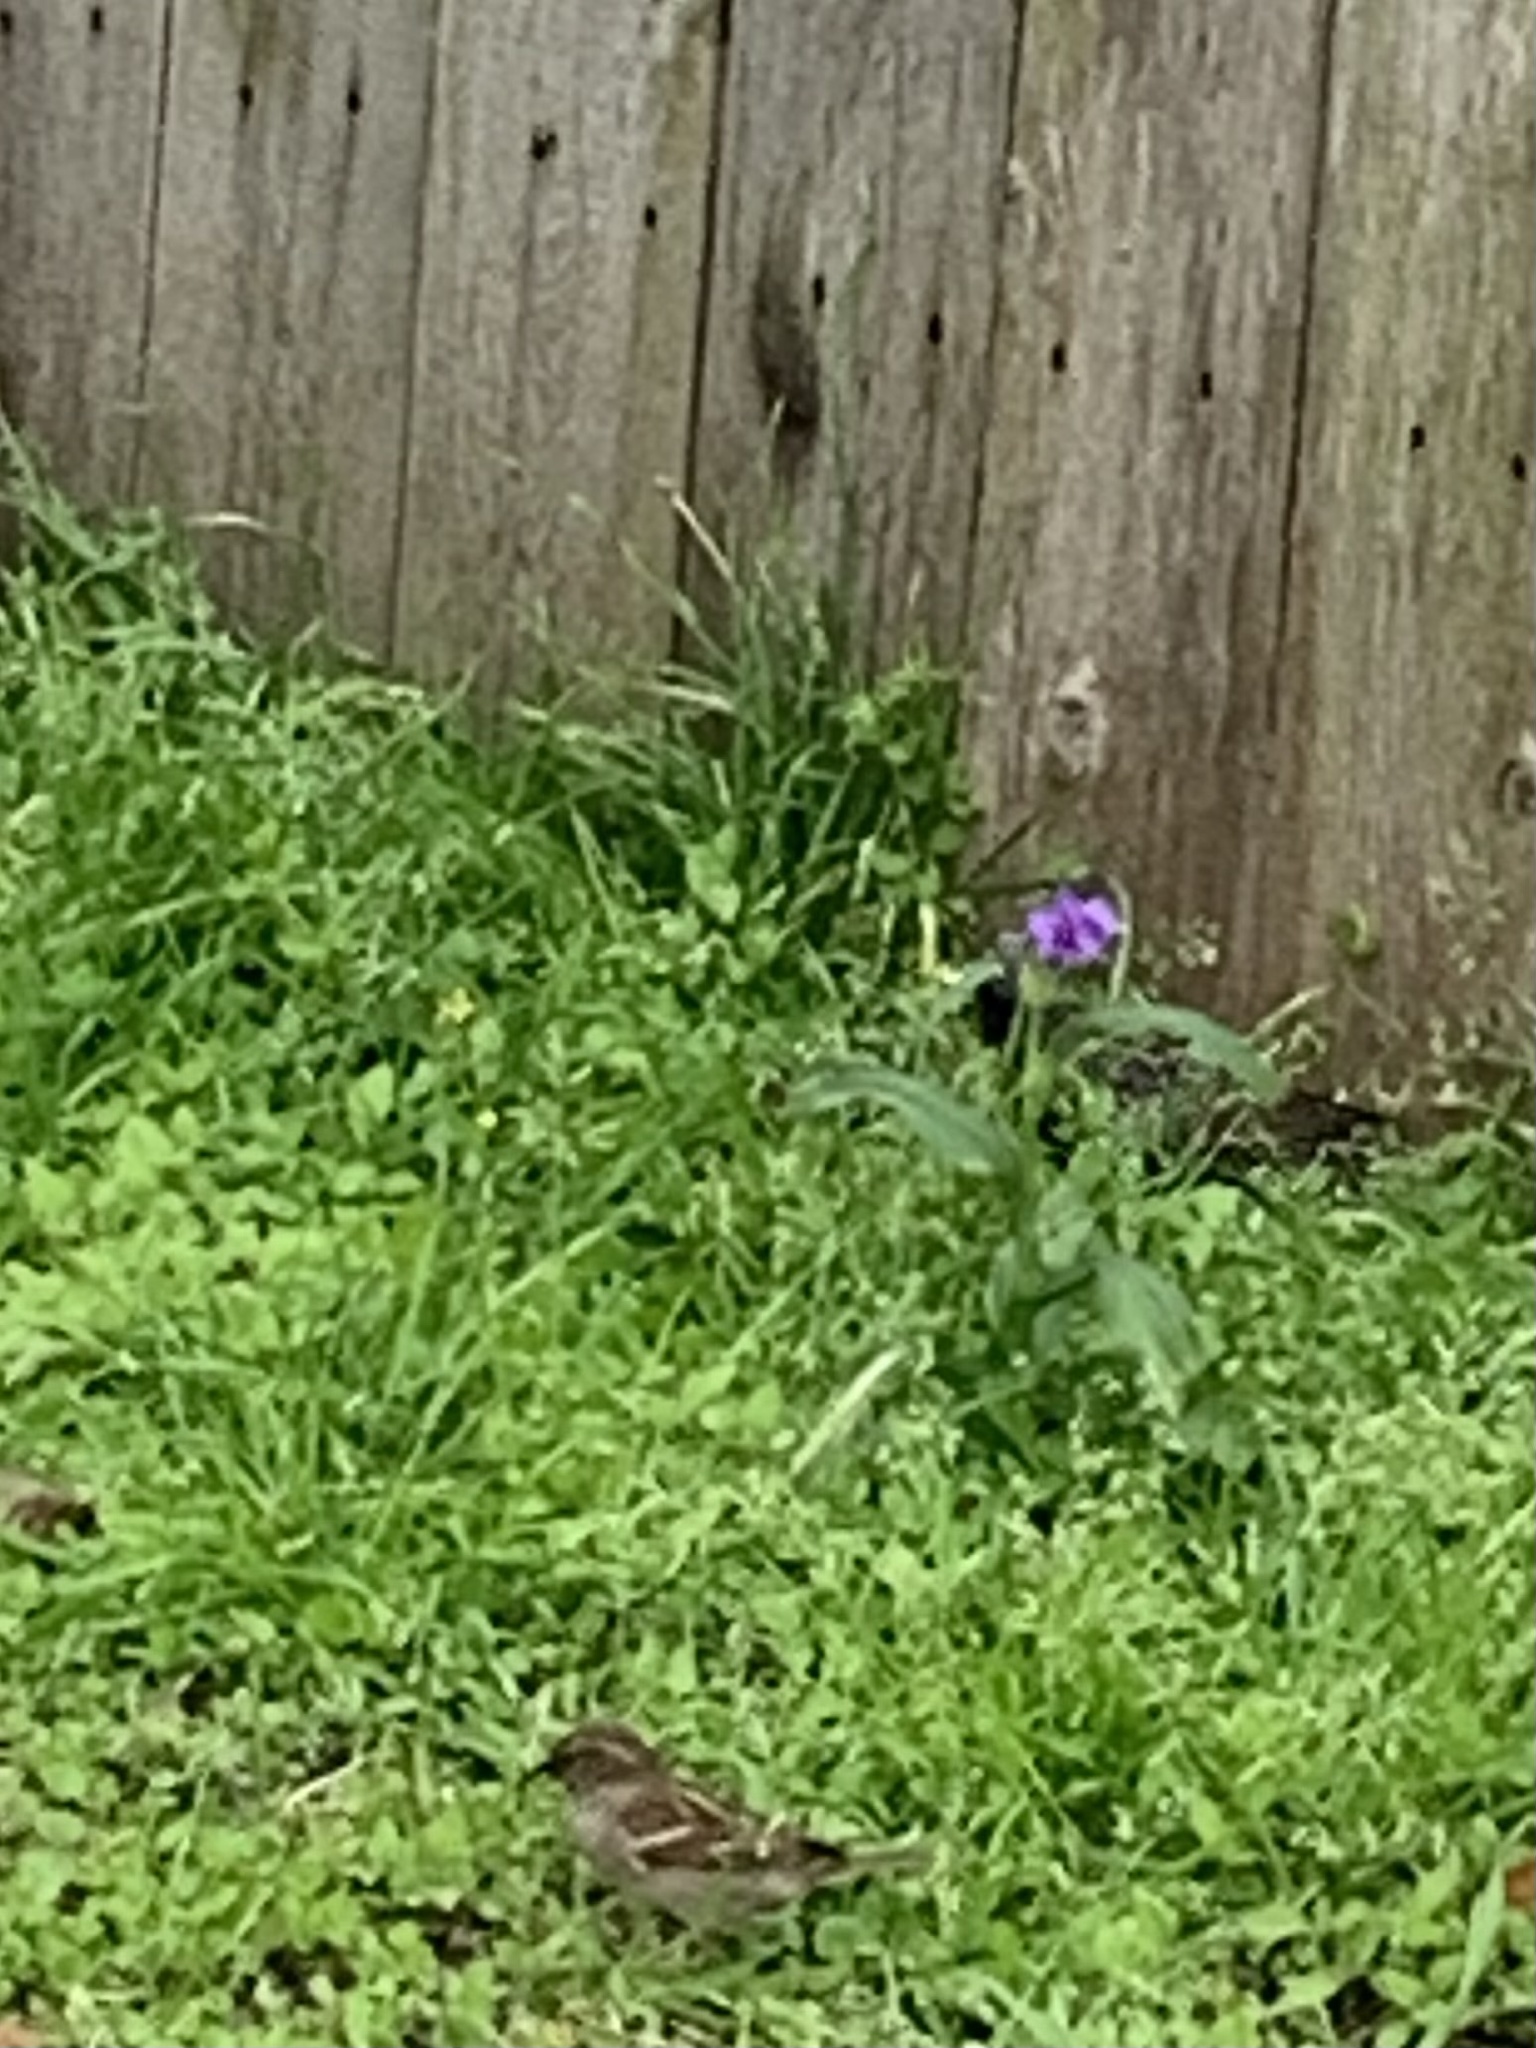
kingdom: Animalia
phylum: Chordata
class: Aves
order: Passeriformes
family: Passeridae
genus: Passer
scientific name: Passer domesticus
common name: House sparrow
